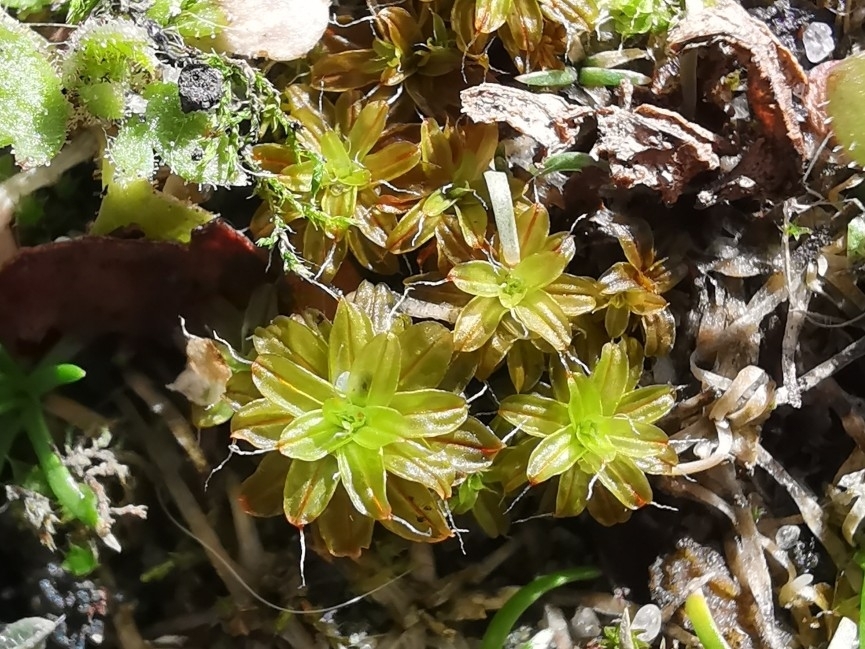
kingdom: Plantae
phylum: Bryophyta
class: Bryopsida
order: Pottiales
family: Pottiaceae
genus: Syntrichia
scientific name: Syntrichia ruralis
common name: Sidewalk screw moss
